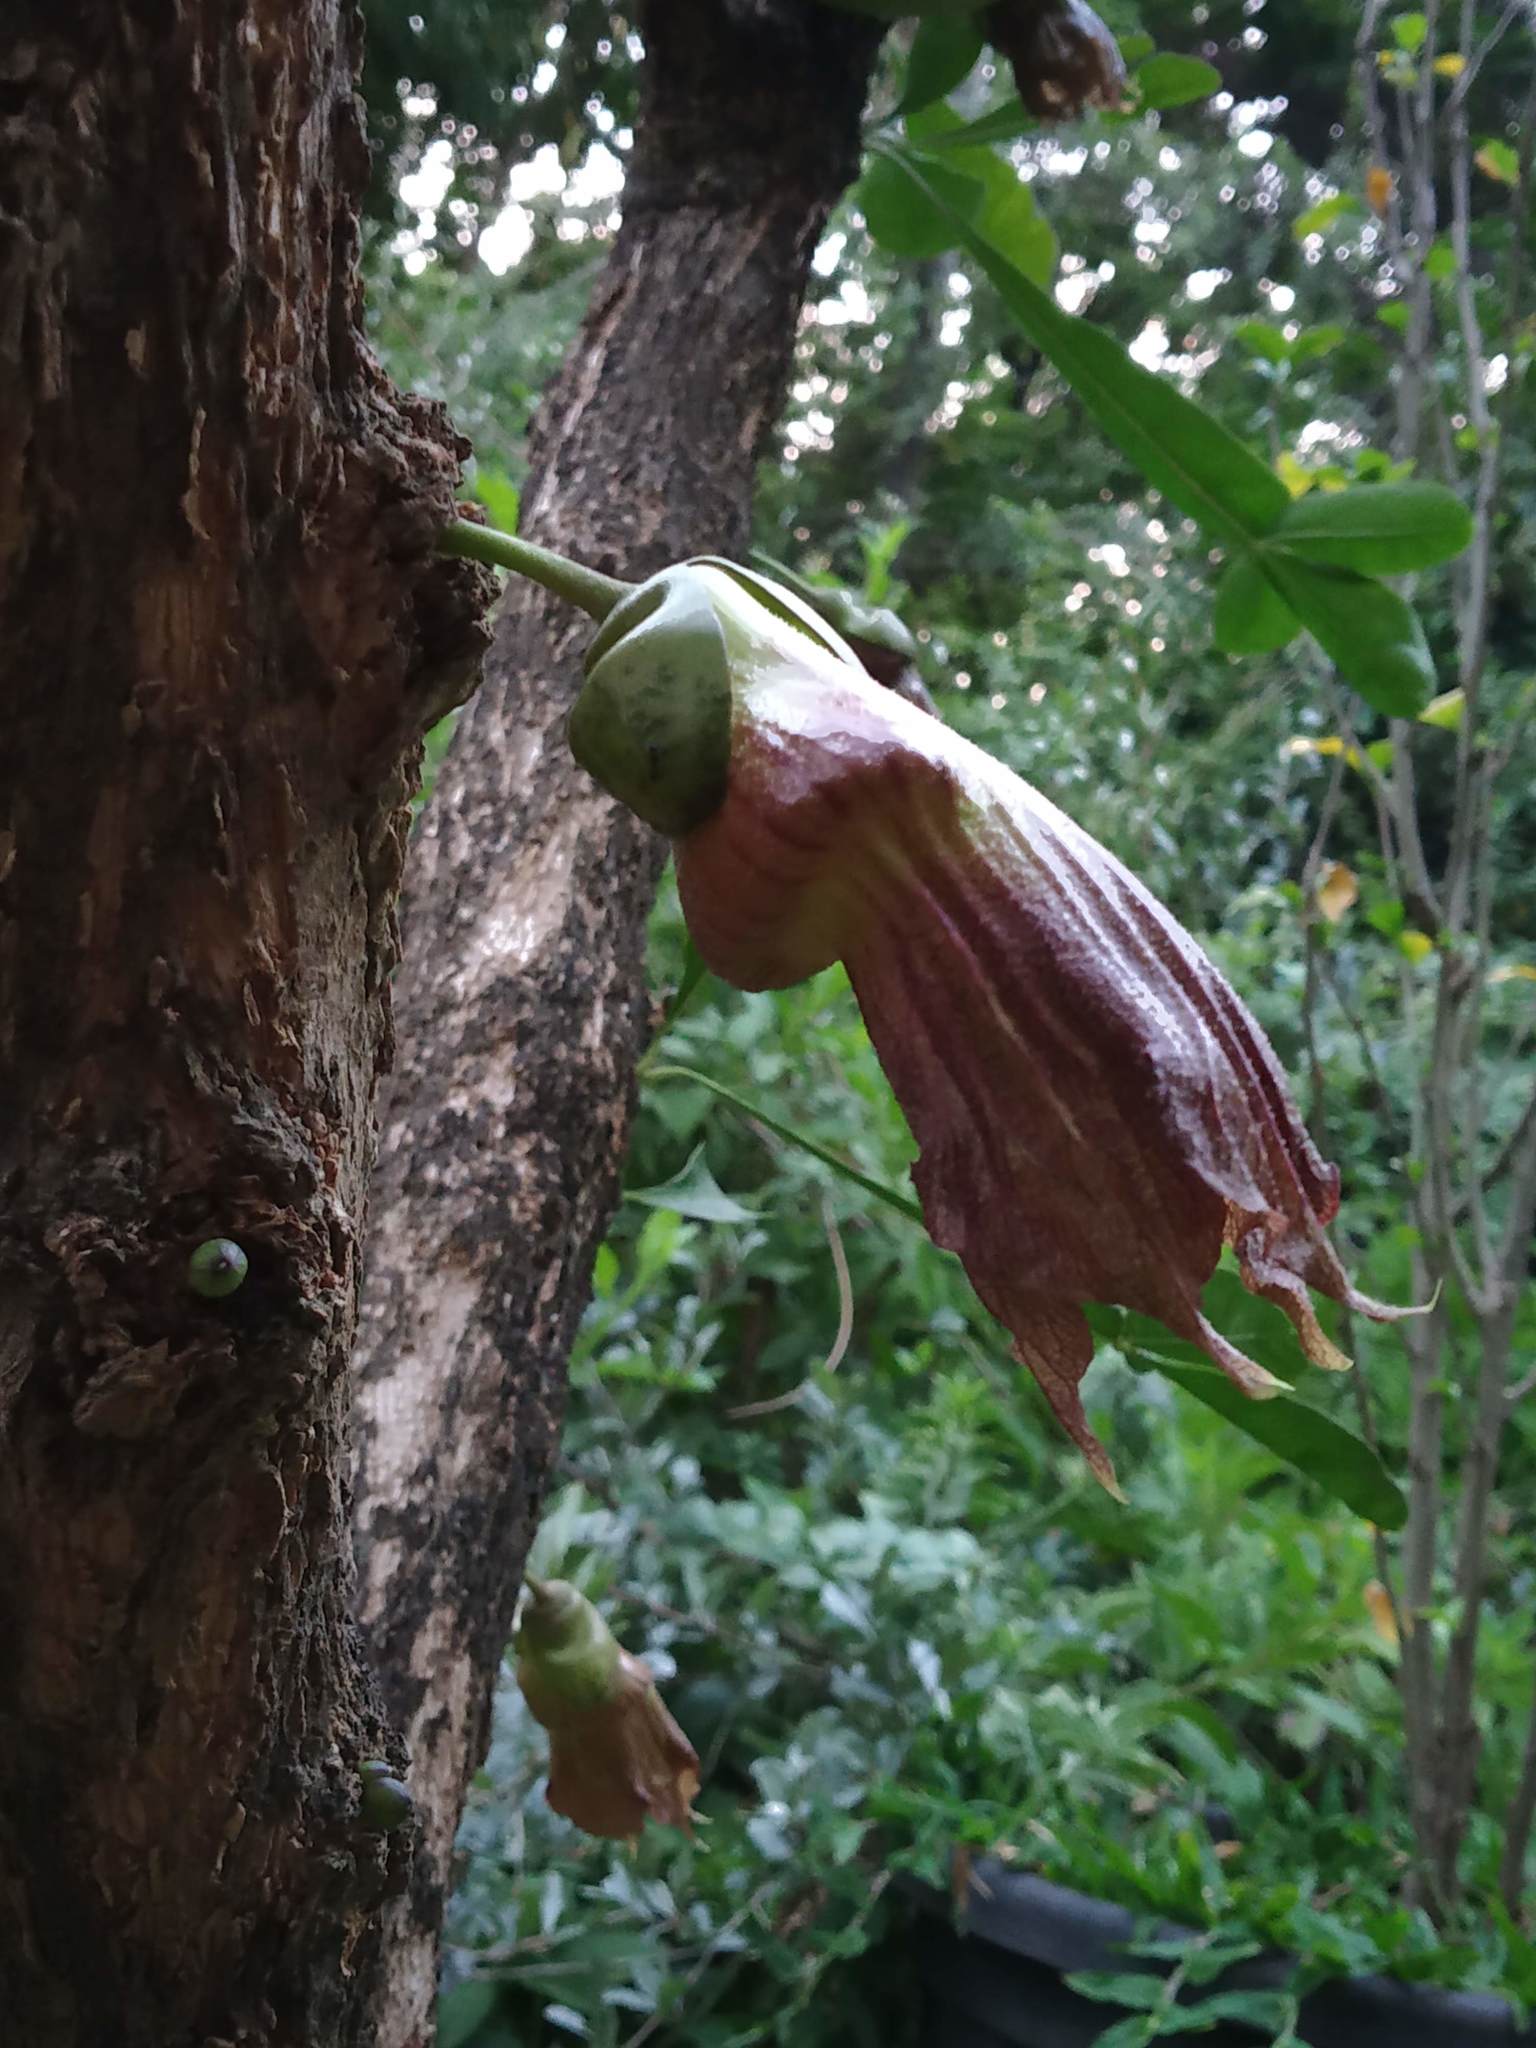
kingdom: Plantae
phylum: Tracheophyta
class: Magnoliopsida
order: Lamiales
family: Bignoniaceae
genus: Crescentia
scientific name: Crescentia cujete
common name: Calabash
